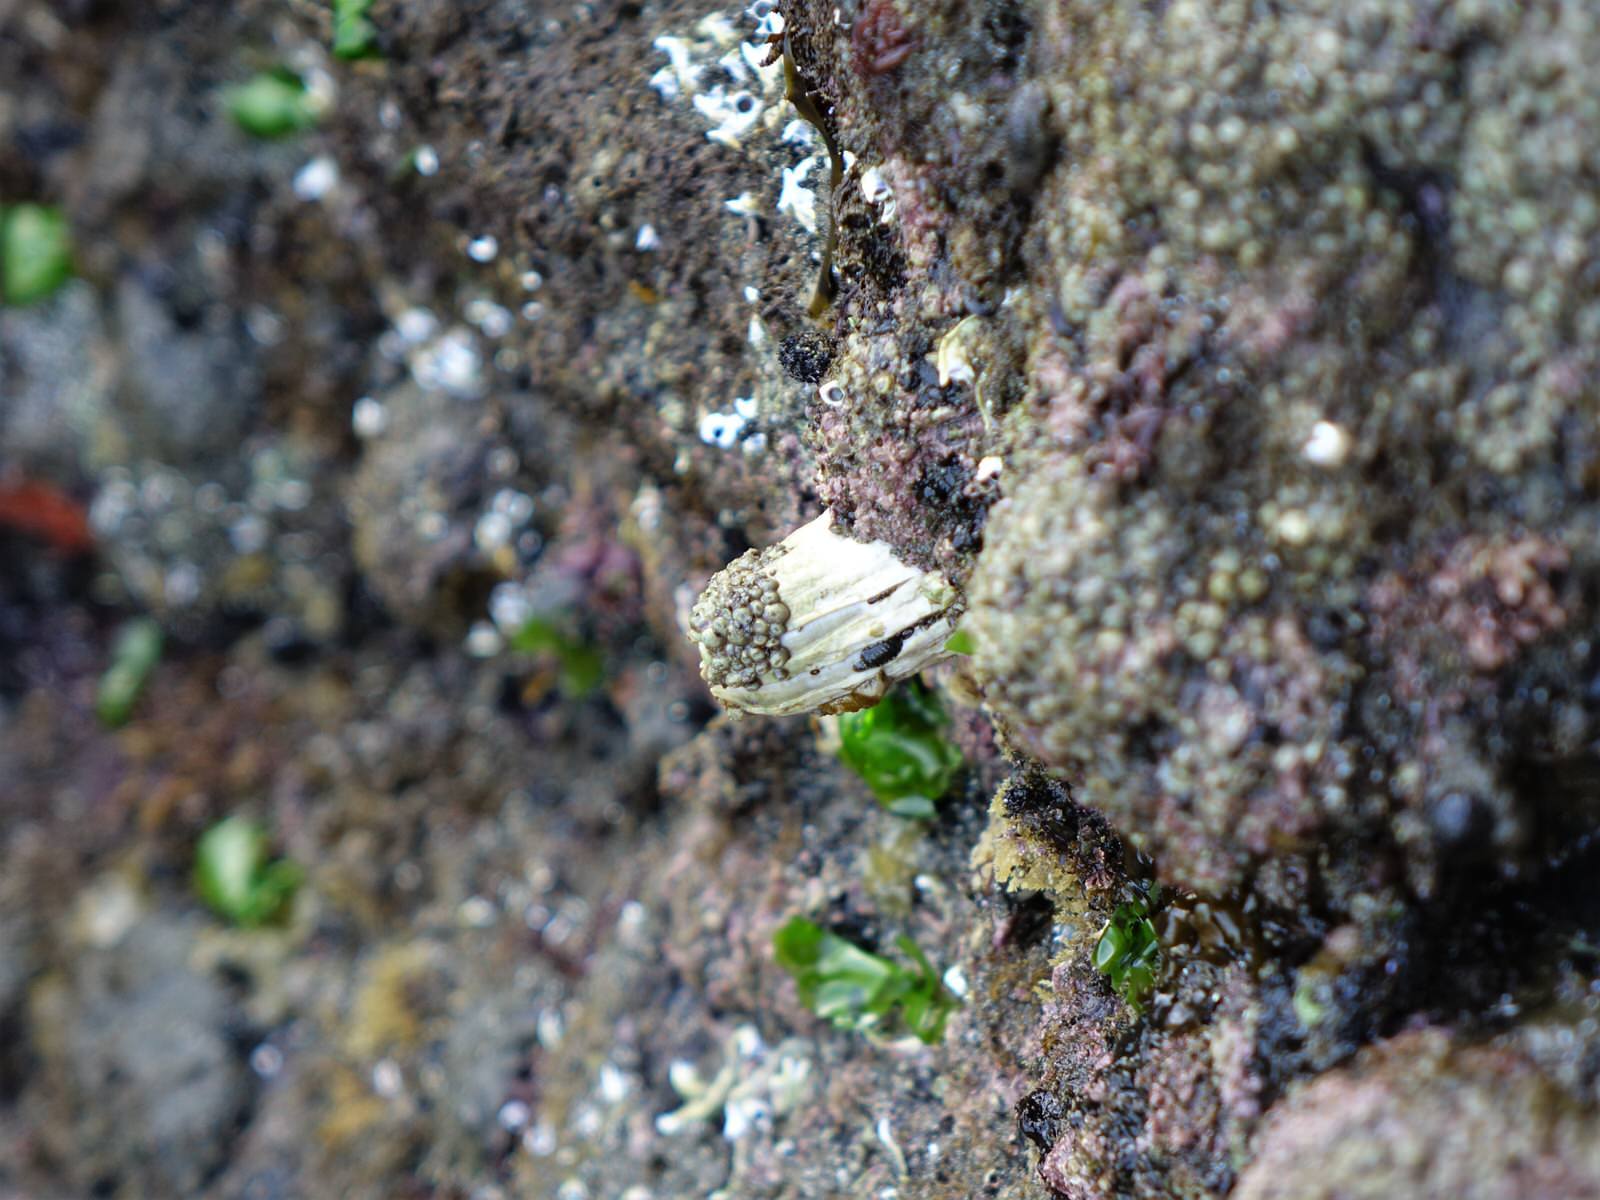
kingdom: Animalia
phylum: Arthropoda
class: Maxillopoda
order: Sessilia
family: Balanidae
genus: Austromegabalanus
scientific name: Austromegabalanus nigrescens
